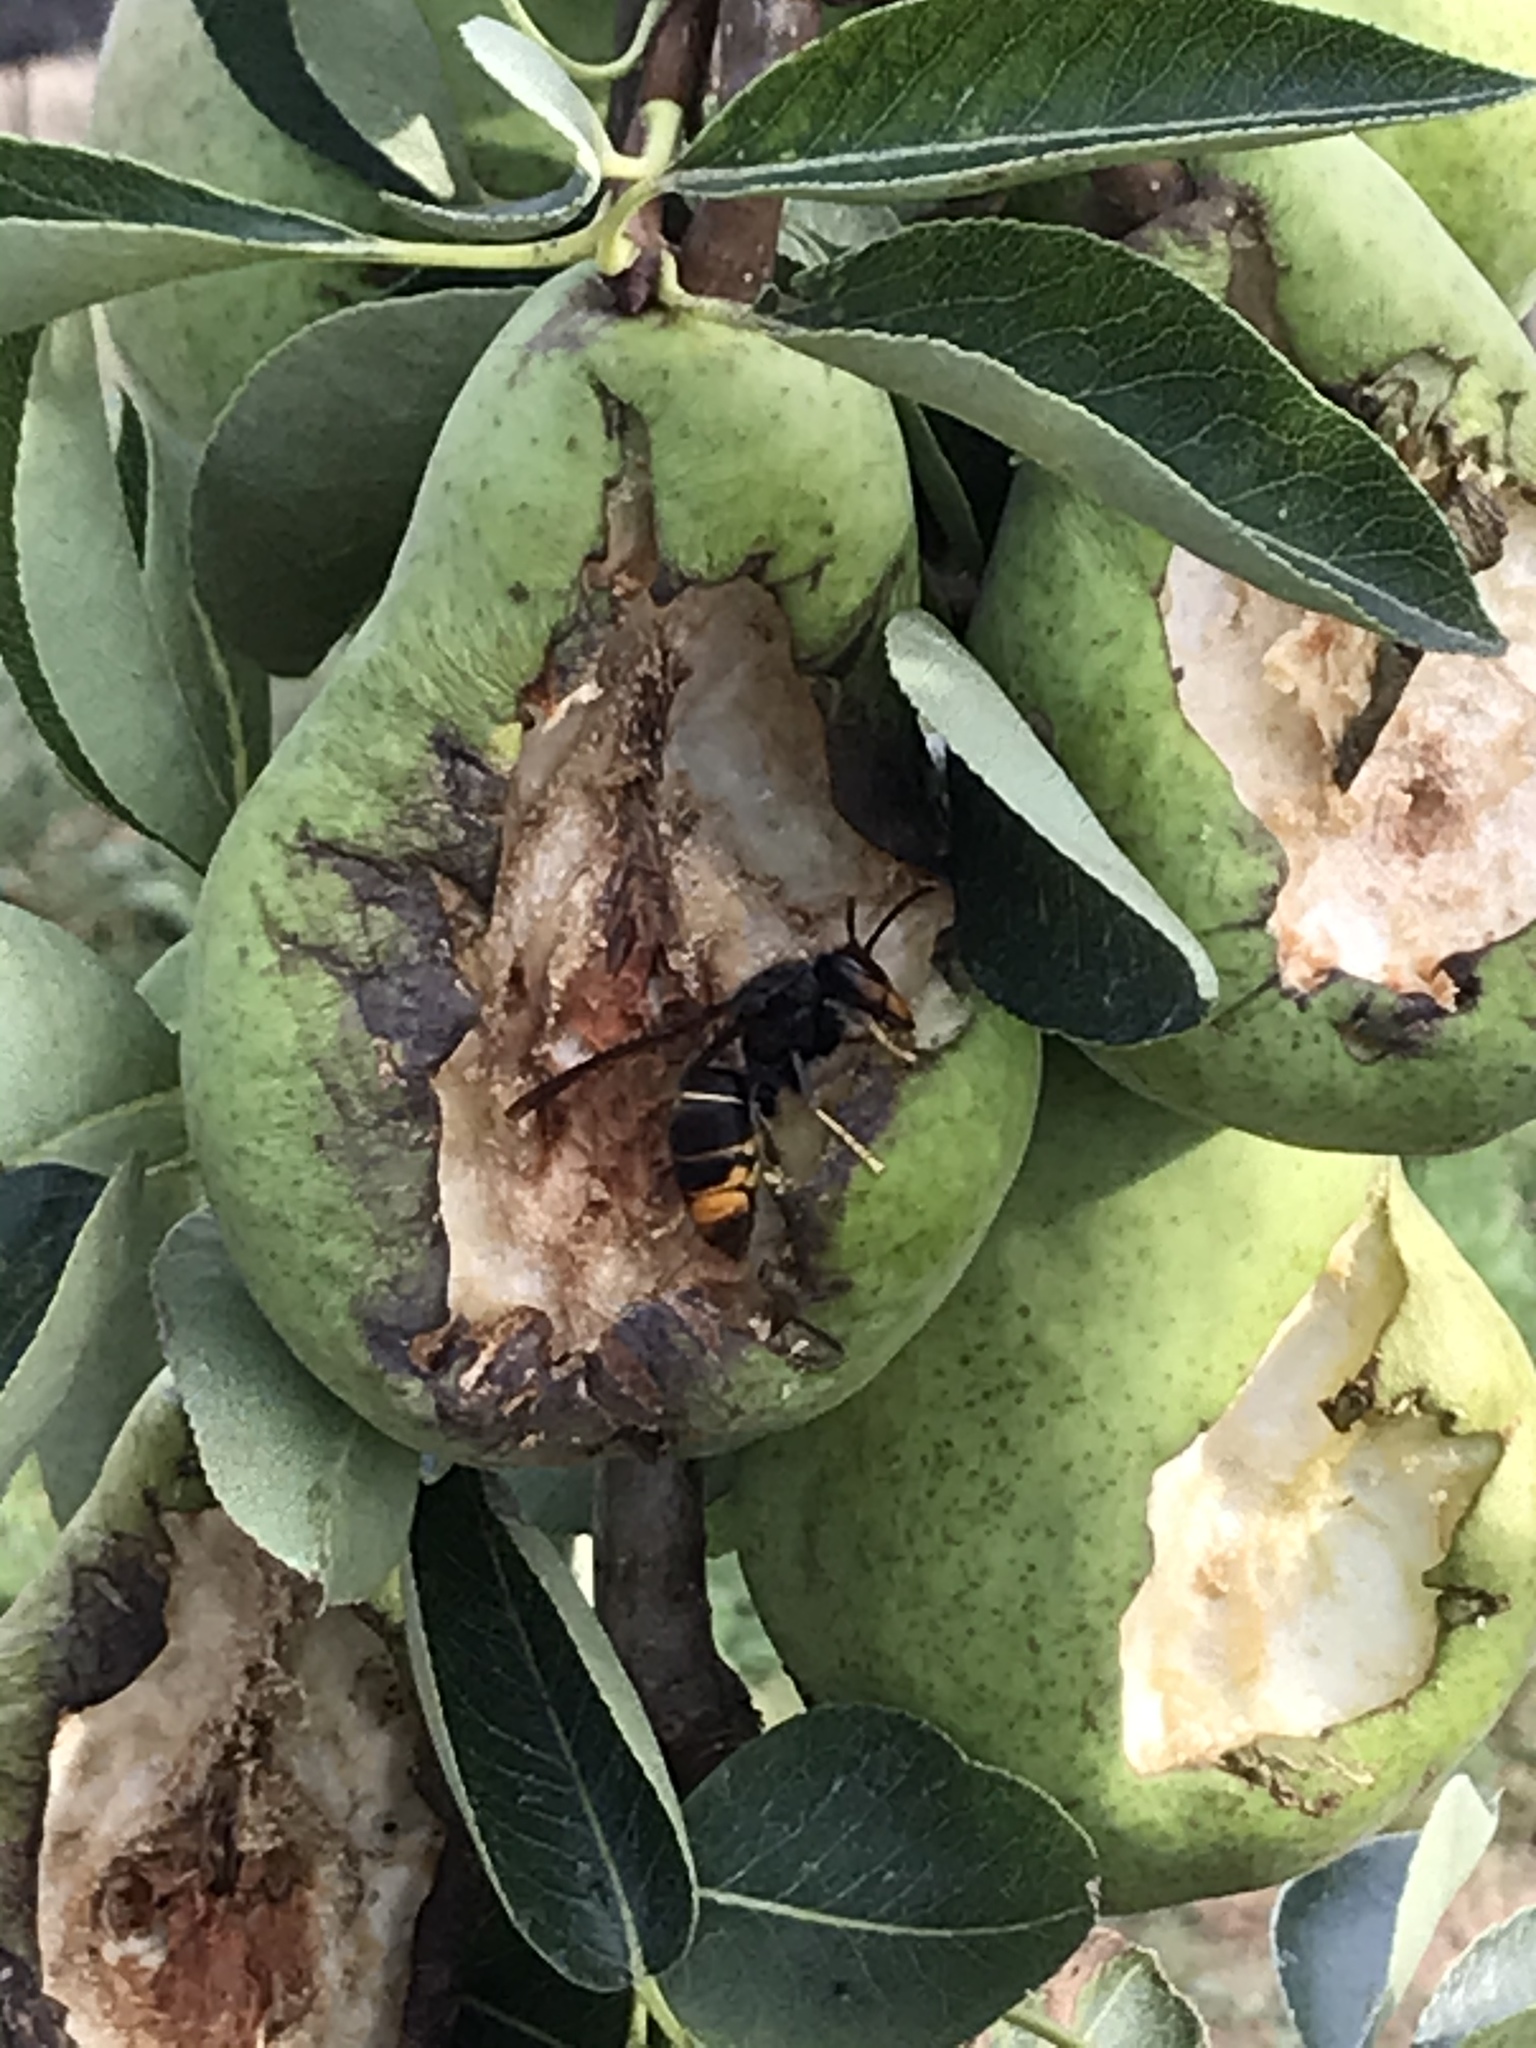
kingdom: Animalia
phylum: Arthropoda
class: Insecta
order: Hymenoptera
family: Vespidae
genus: Vespa
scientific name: Vespa velutina
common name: Asian hornet
